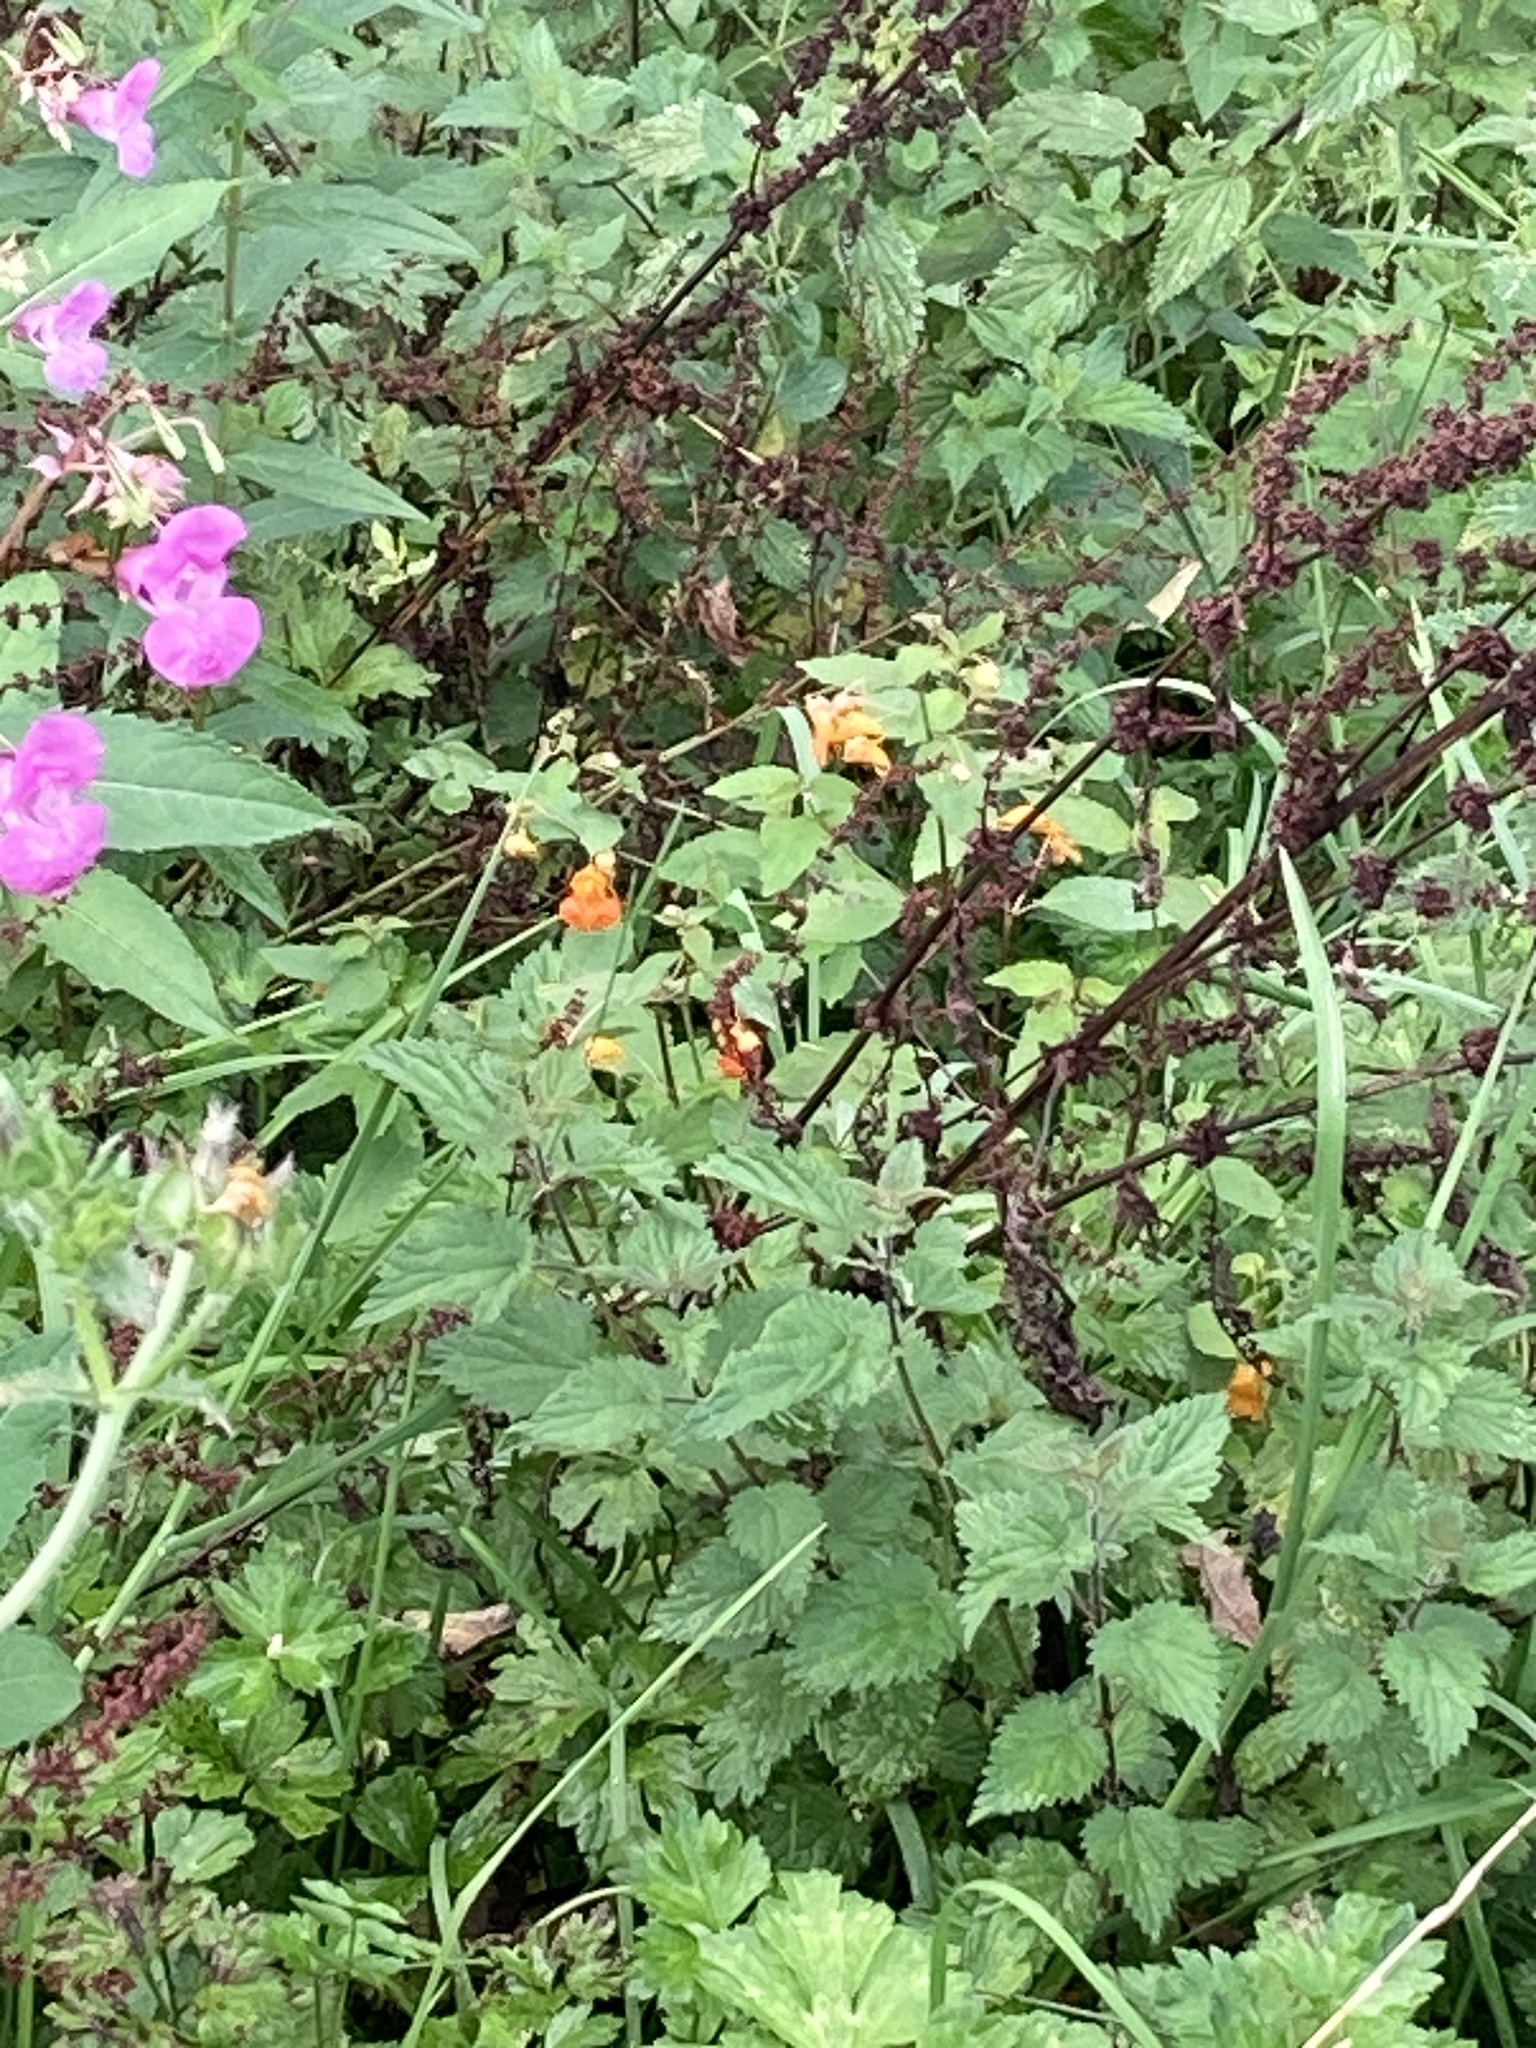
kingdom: Plantae
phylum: Tracheophyta
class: Magnoliopsida
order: Ericales
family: Balsaminaceae
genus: Impatiens
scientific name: Impatiens capensis
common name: Orange balsam
